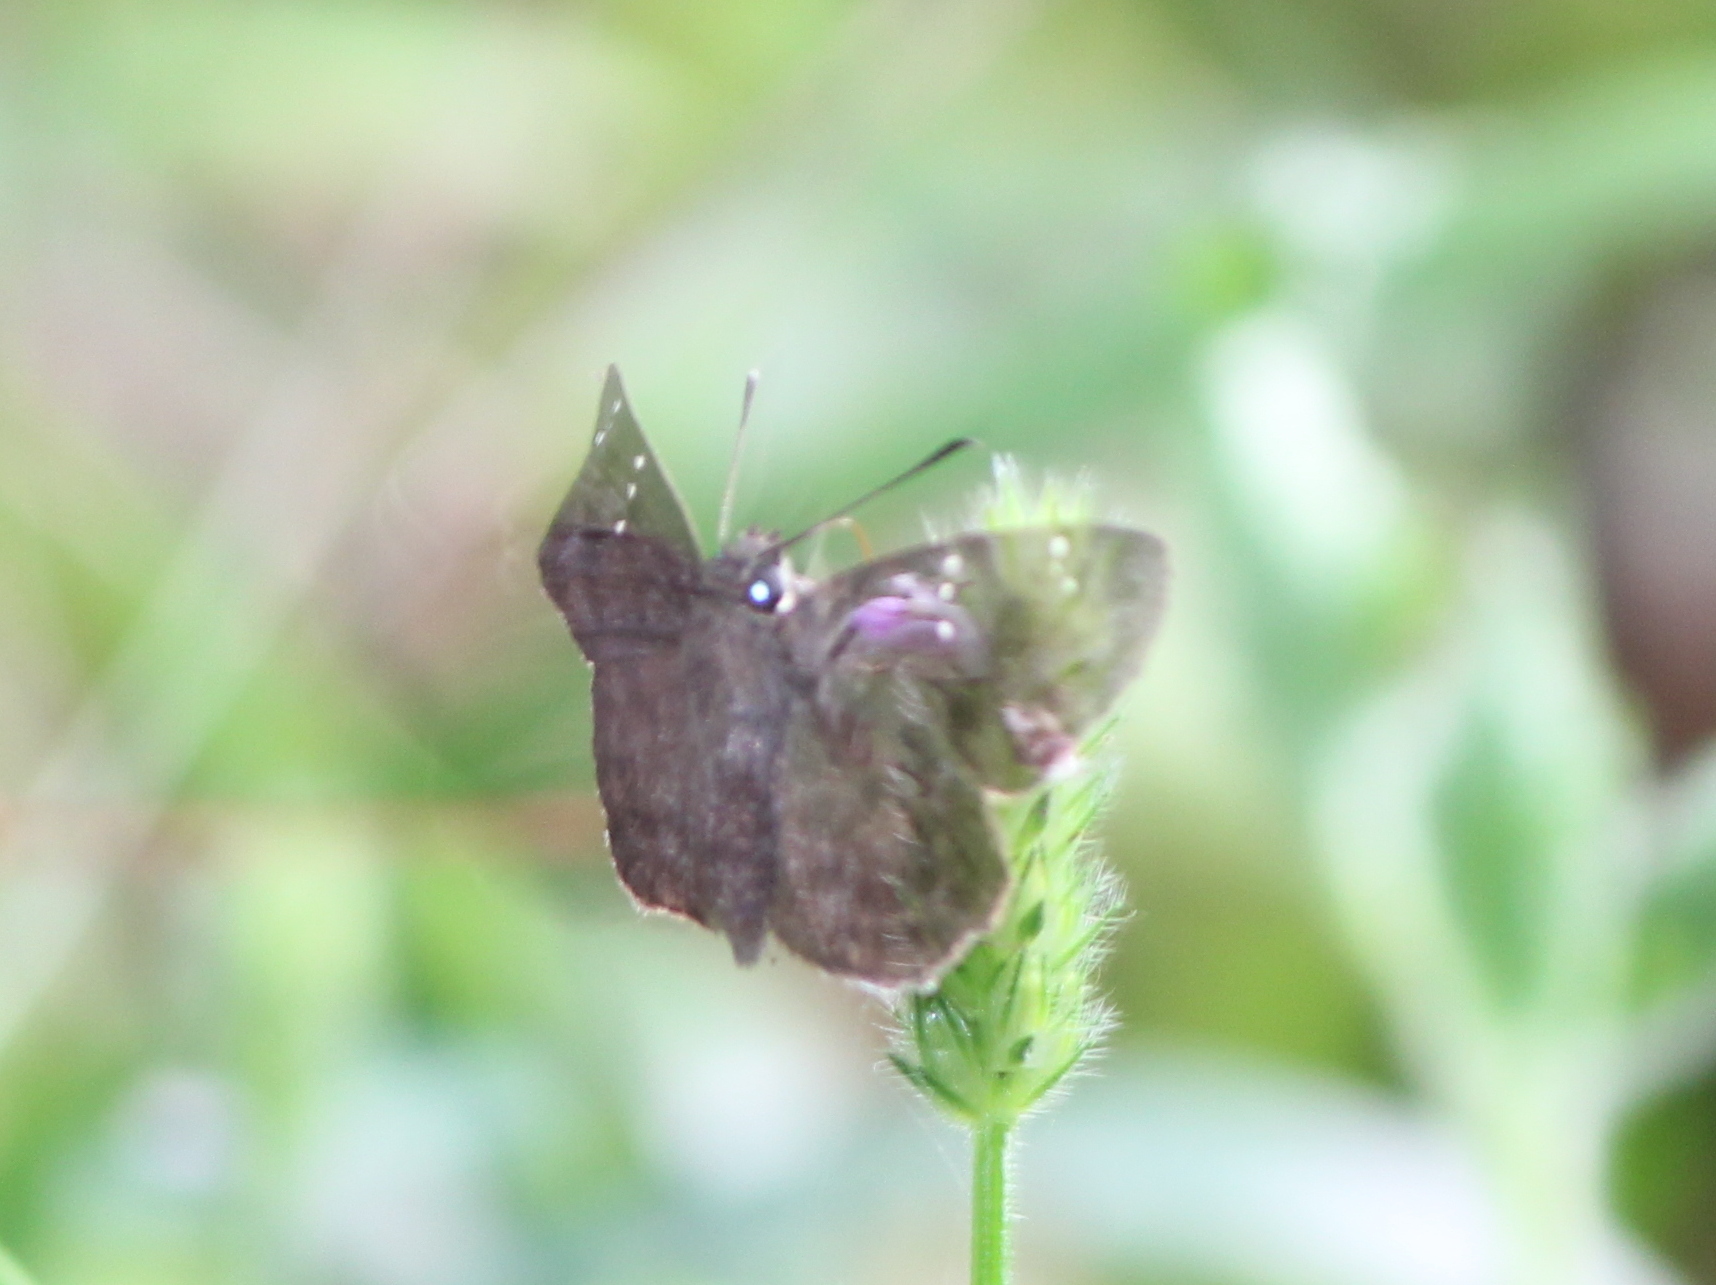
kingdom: Animalia
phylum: Arthropoda
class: Insecta
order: Lepidoptera
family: Hesperiidae
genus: Sarangesa
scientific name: Sarangesa dasahara
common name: Common small flat
